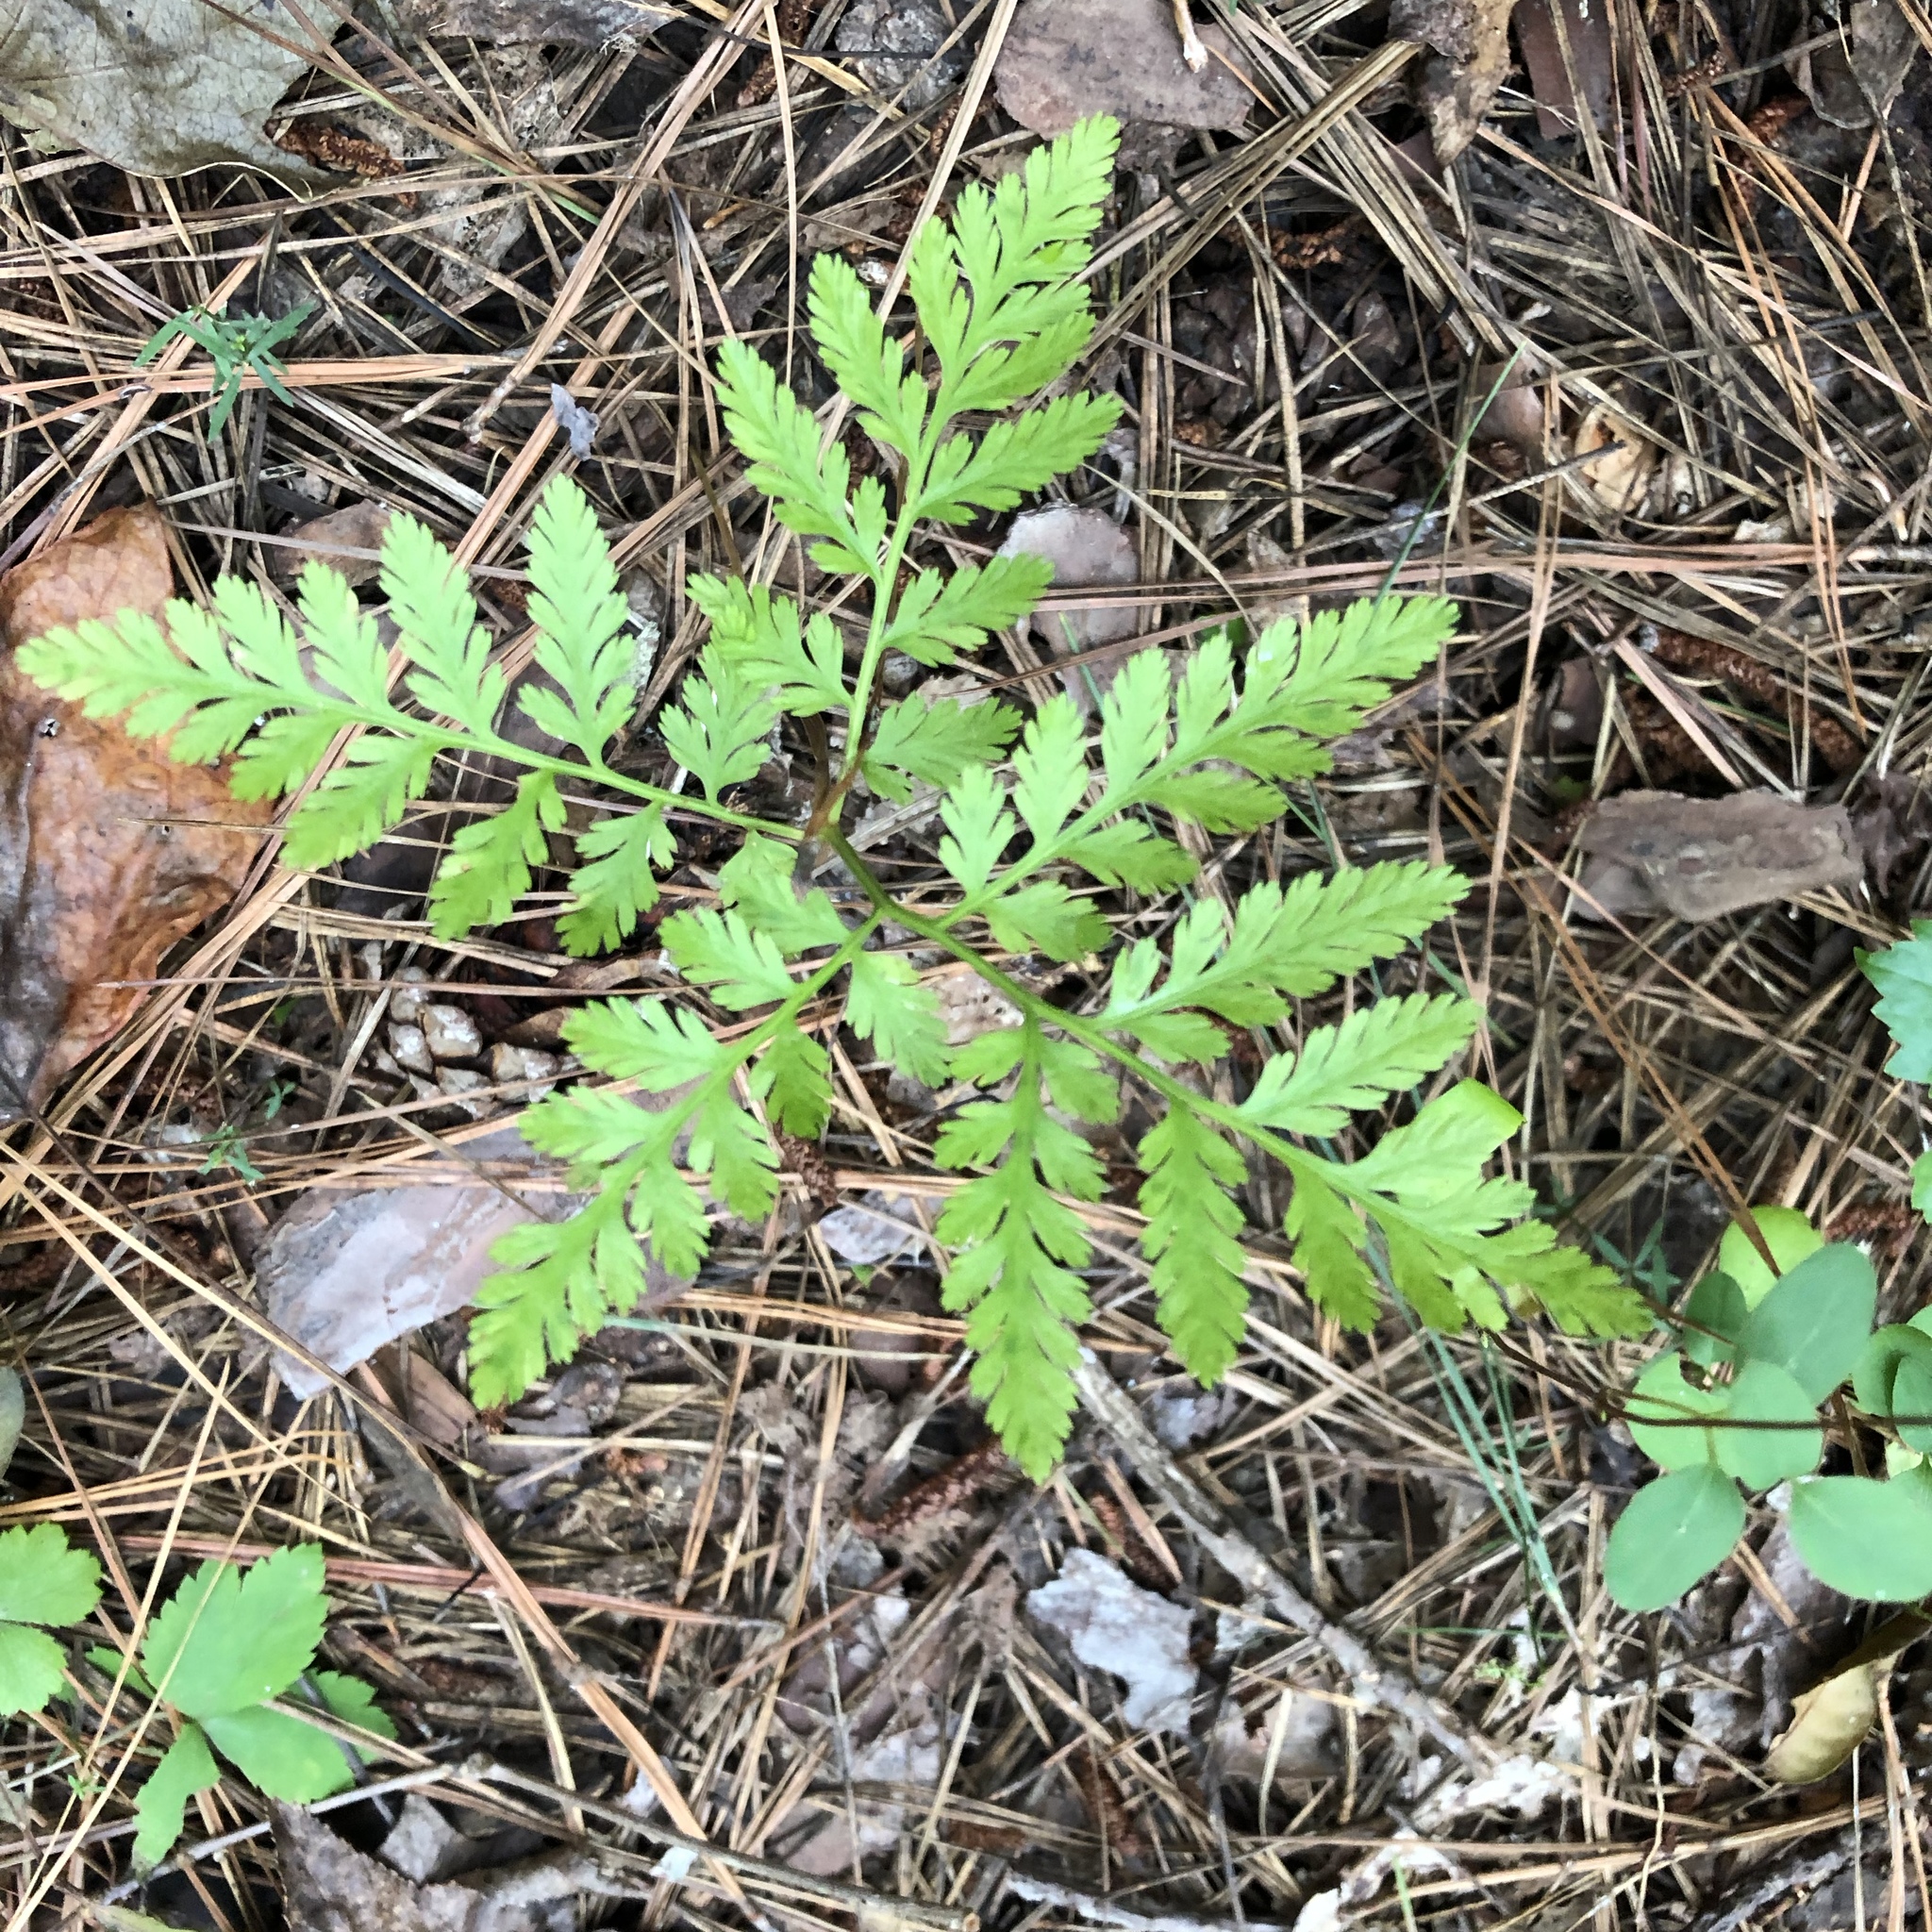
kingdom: Plantae
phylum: Tracheophyta
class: Polypodiopsida
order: Ophioglossales
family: Ophioglossaceae
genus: Botrypus
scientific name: Botrypus virginianus
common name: Common grapefern
